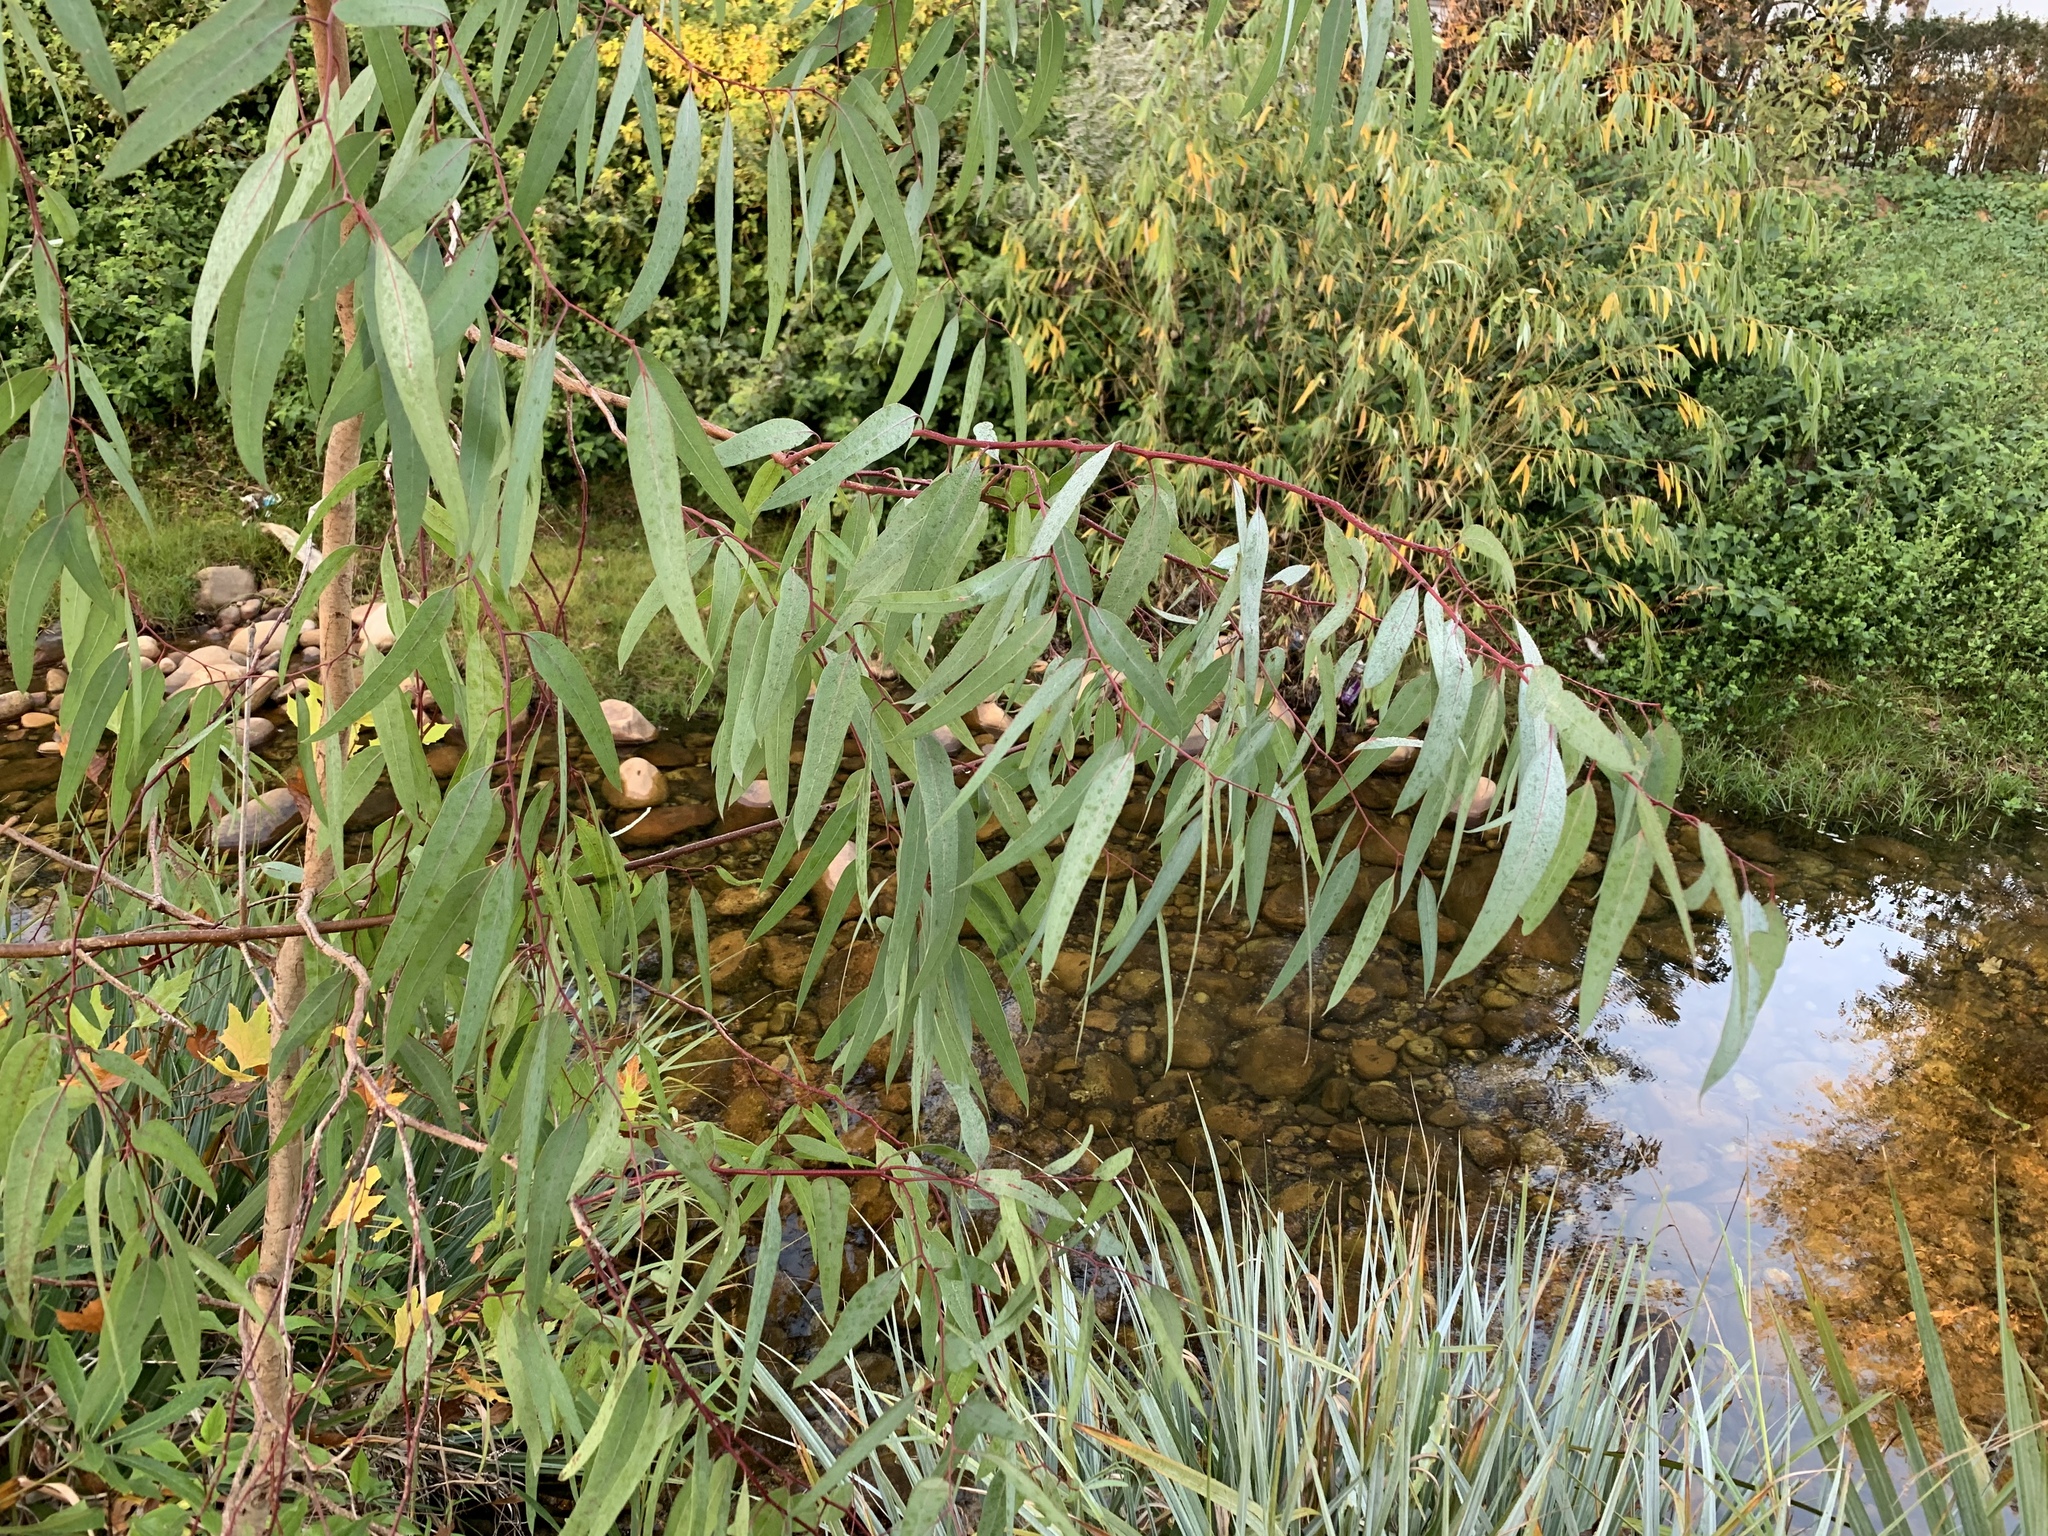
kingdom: Plantae
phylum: Tracheophyta
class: Magnoliopsida
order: Myrtales
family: Myrtaceae
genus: Eucalyptus
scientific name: Eucalyptus camaldulensis
